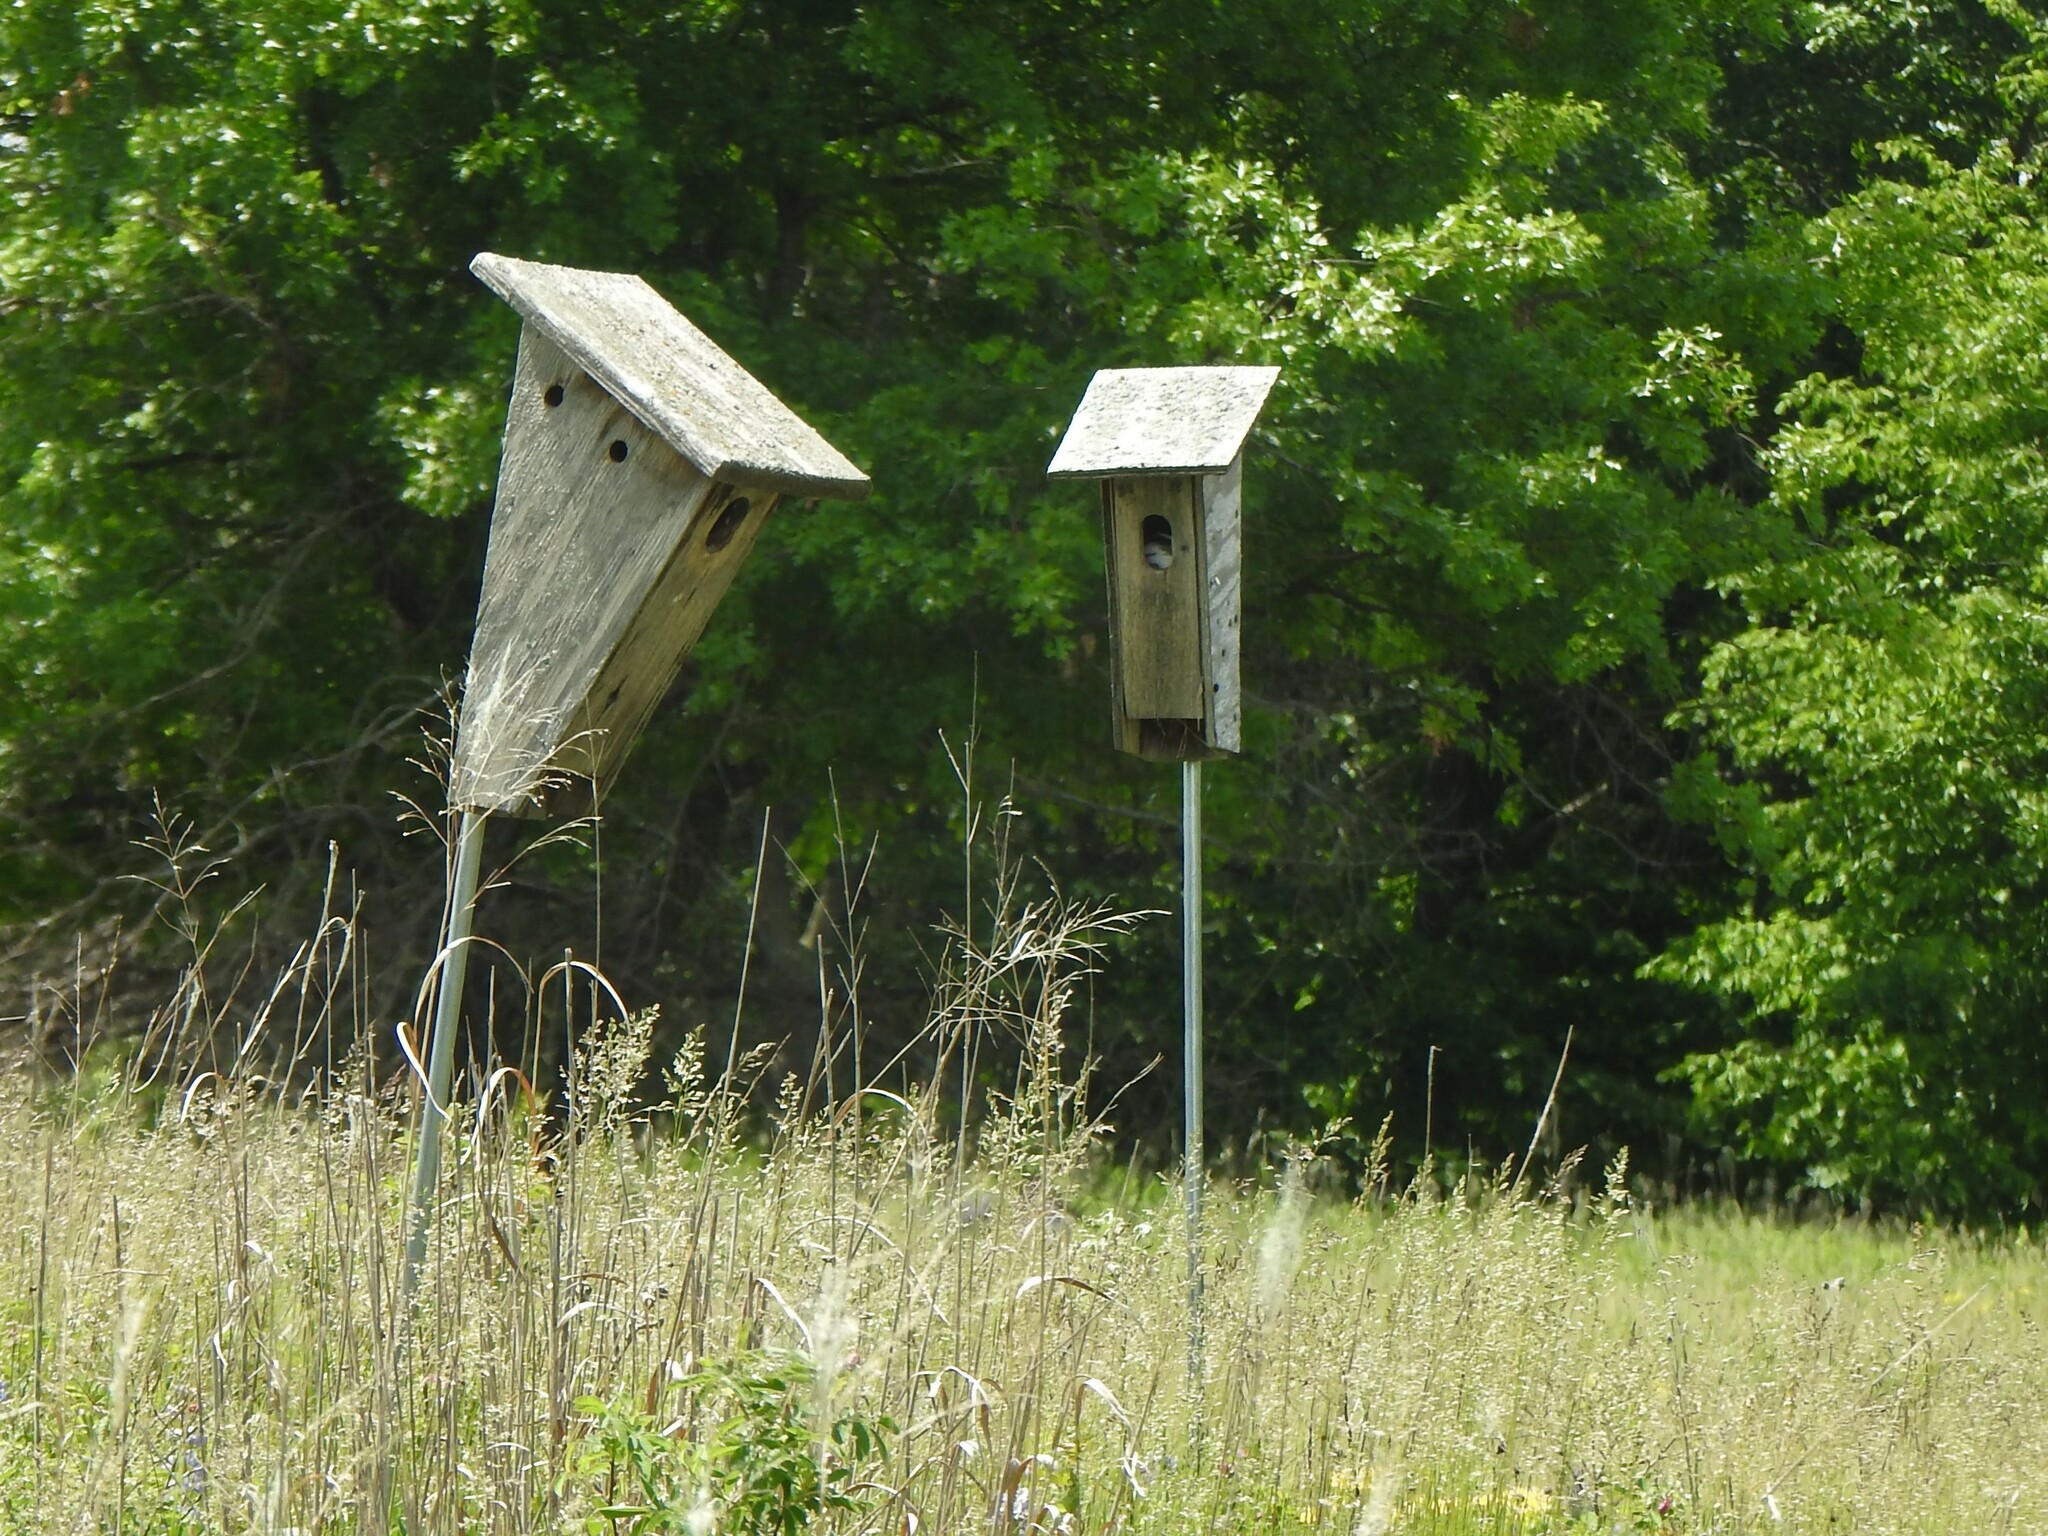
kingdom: Animalia
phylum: Chordata
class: Aves
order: Passeriformes
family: Hirundinidae
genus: Tachycineta
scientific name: Tachycineta bicolor
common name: Tree swallow
